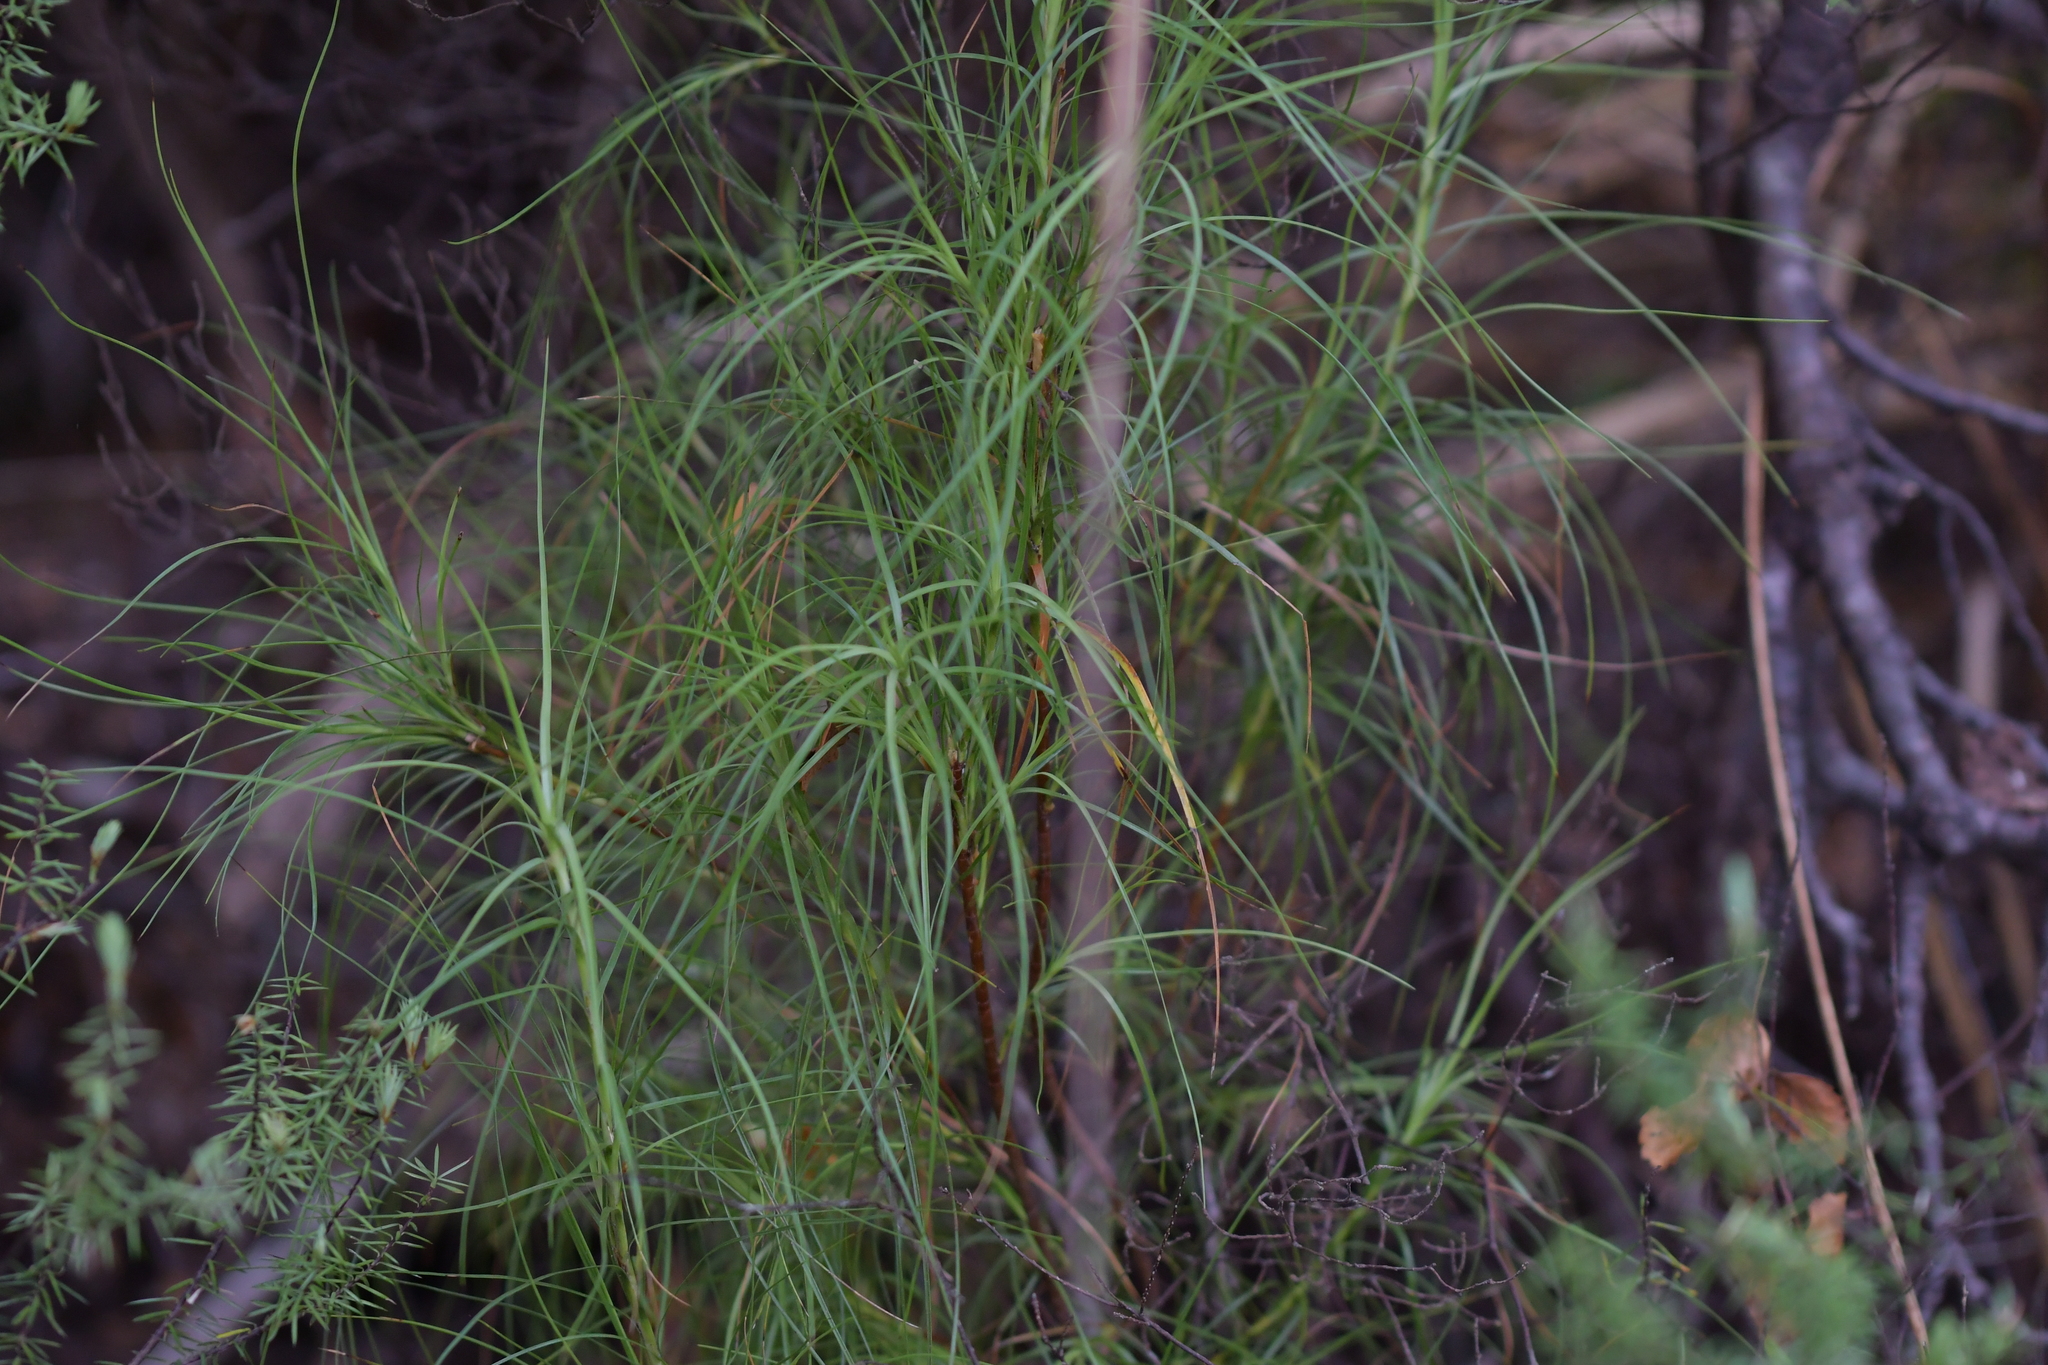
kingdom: Plantae
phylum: Tracheophyta
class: Magnoliopsida
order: Ericales
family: Ericaceae
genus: Dracophyllum
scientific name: Dracophyllum filifolium
